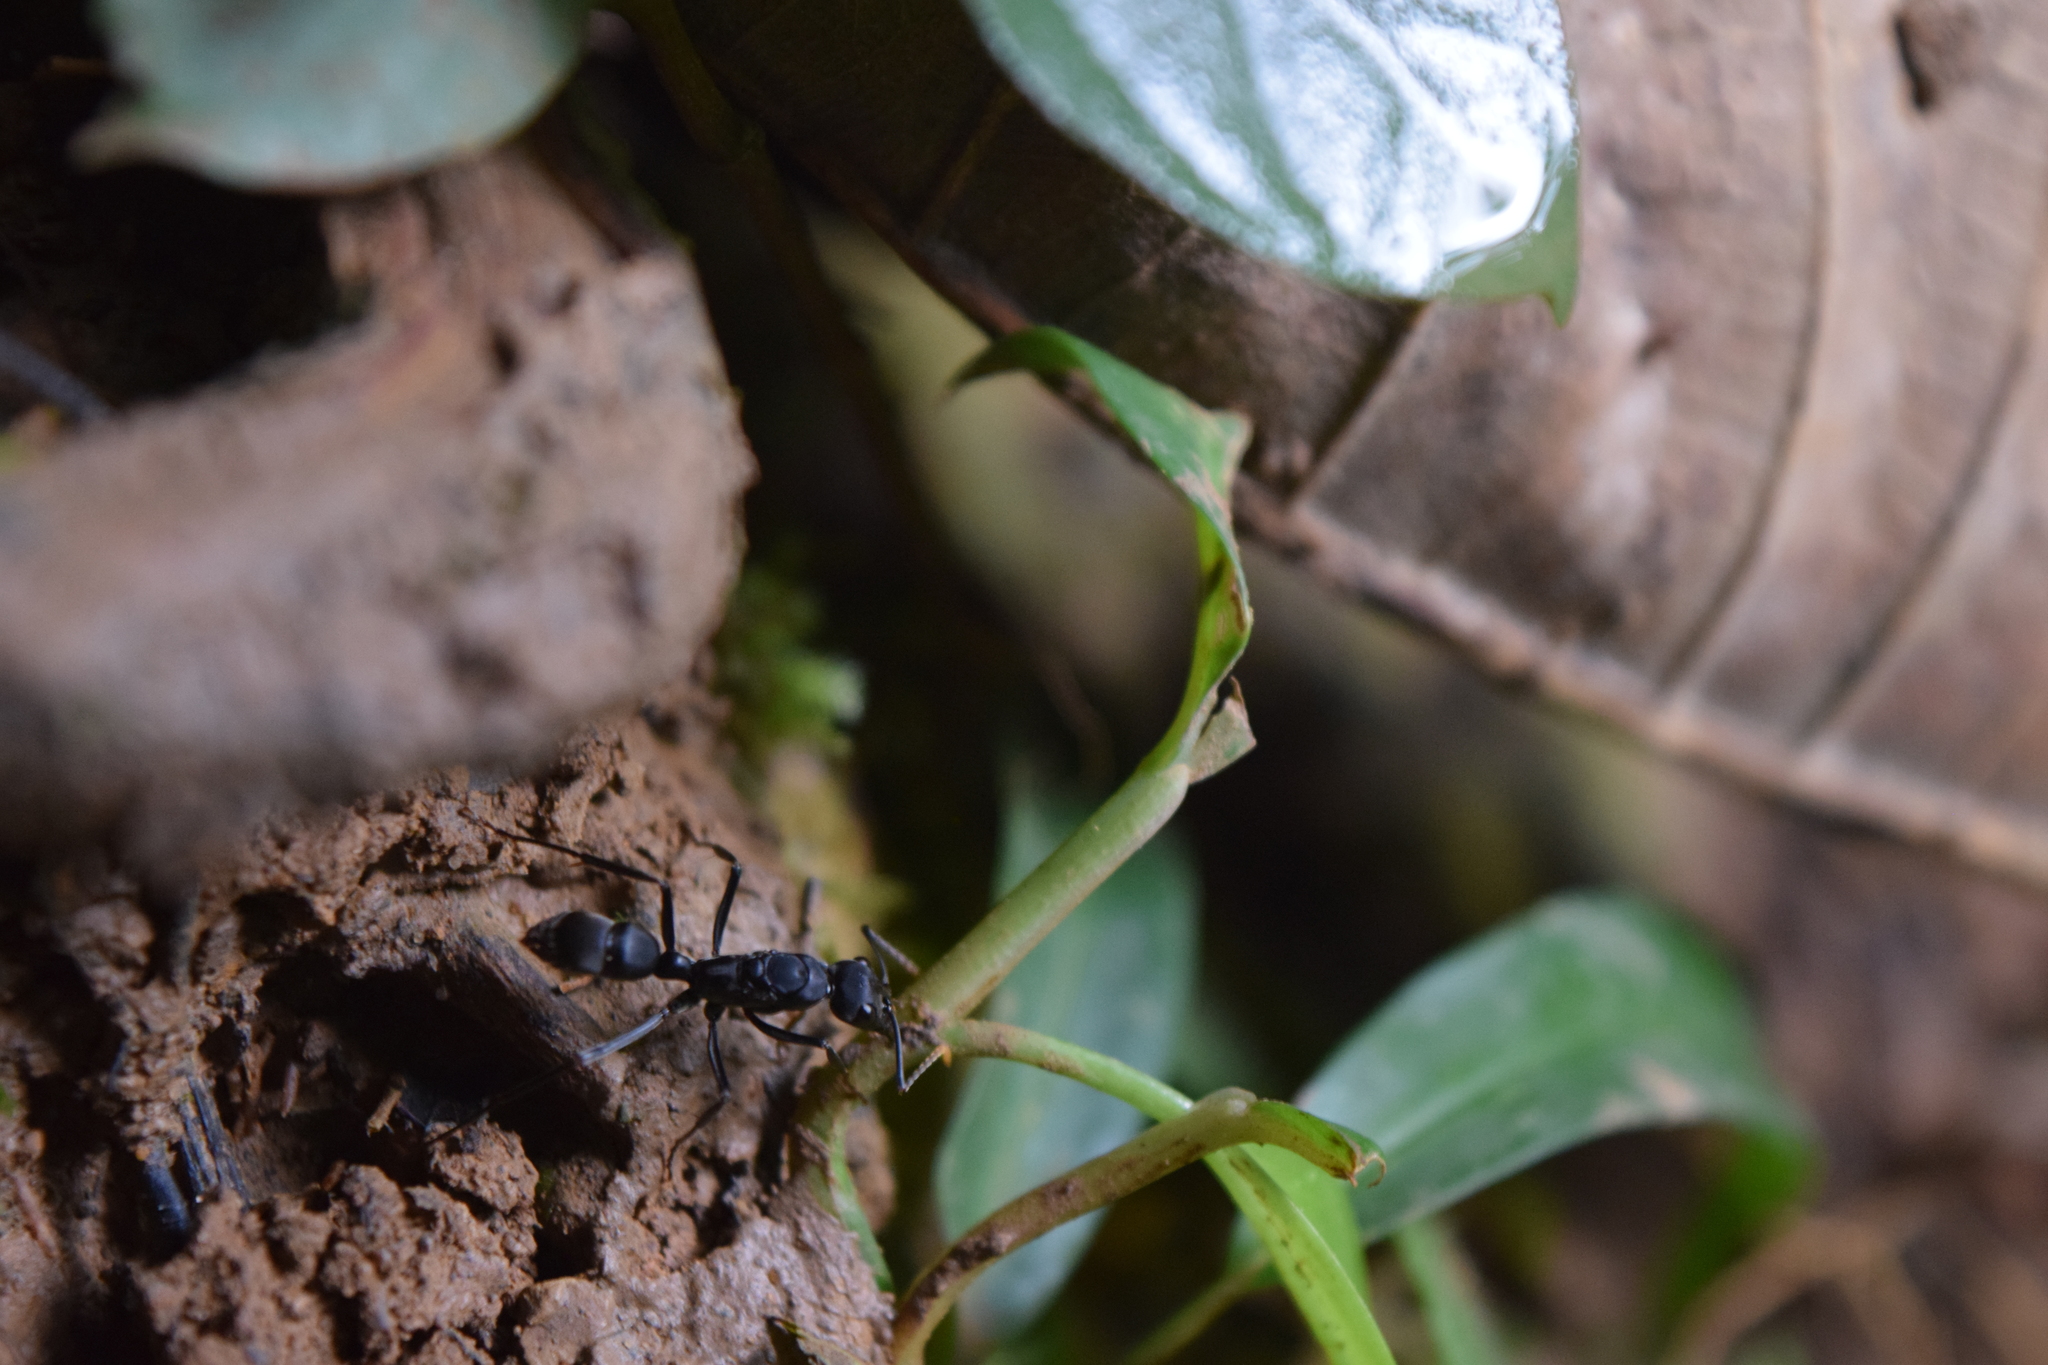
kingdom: Animalia
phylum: Arthropoda
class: Insecta
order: Hymenoptera
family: Formicidae
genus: Pachycondyla
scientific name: Pachycondyla apicalis
